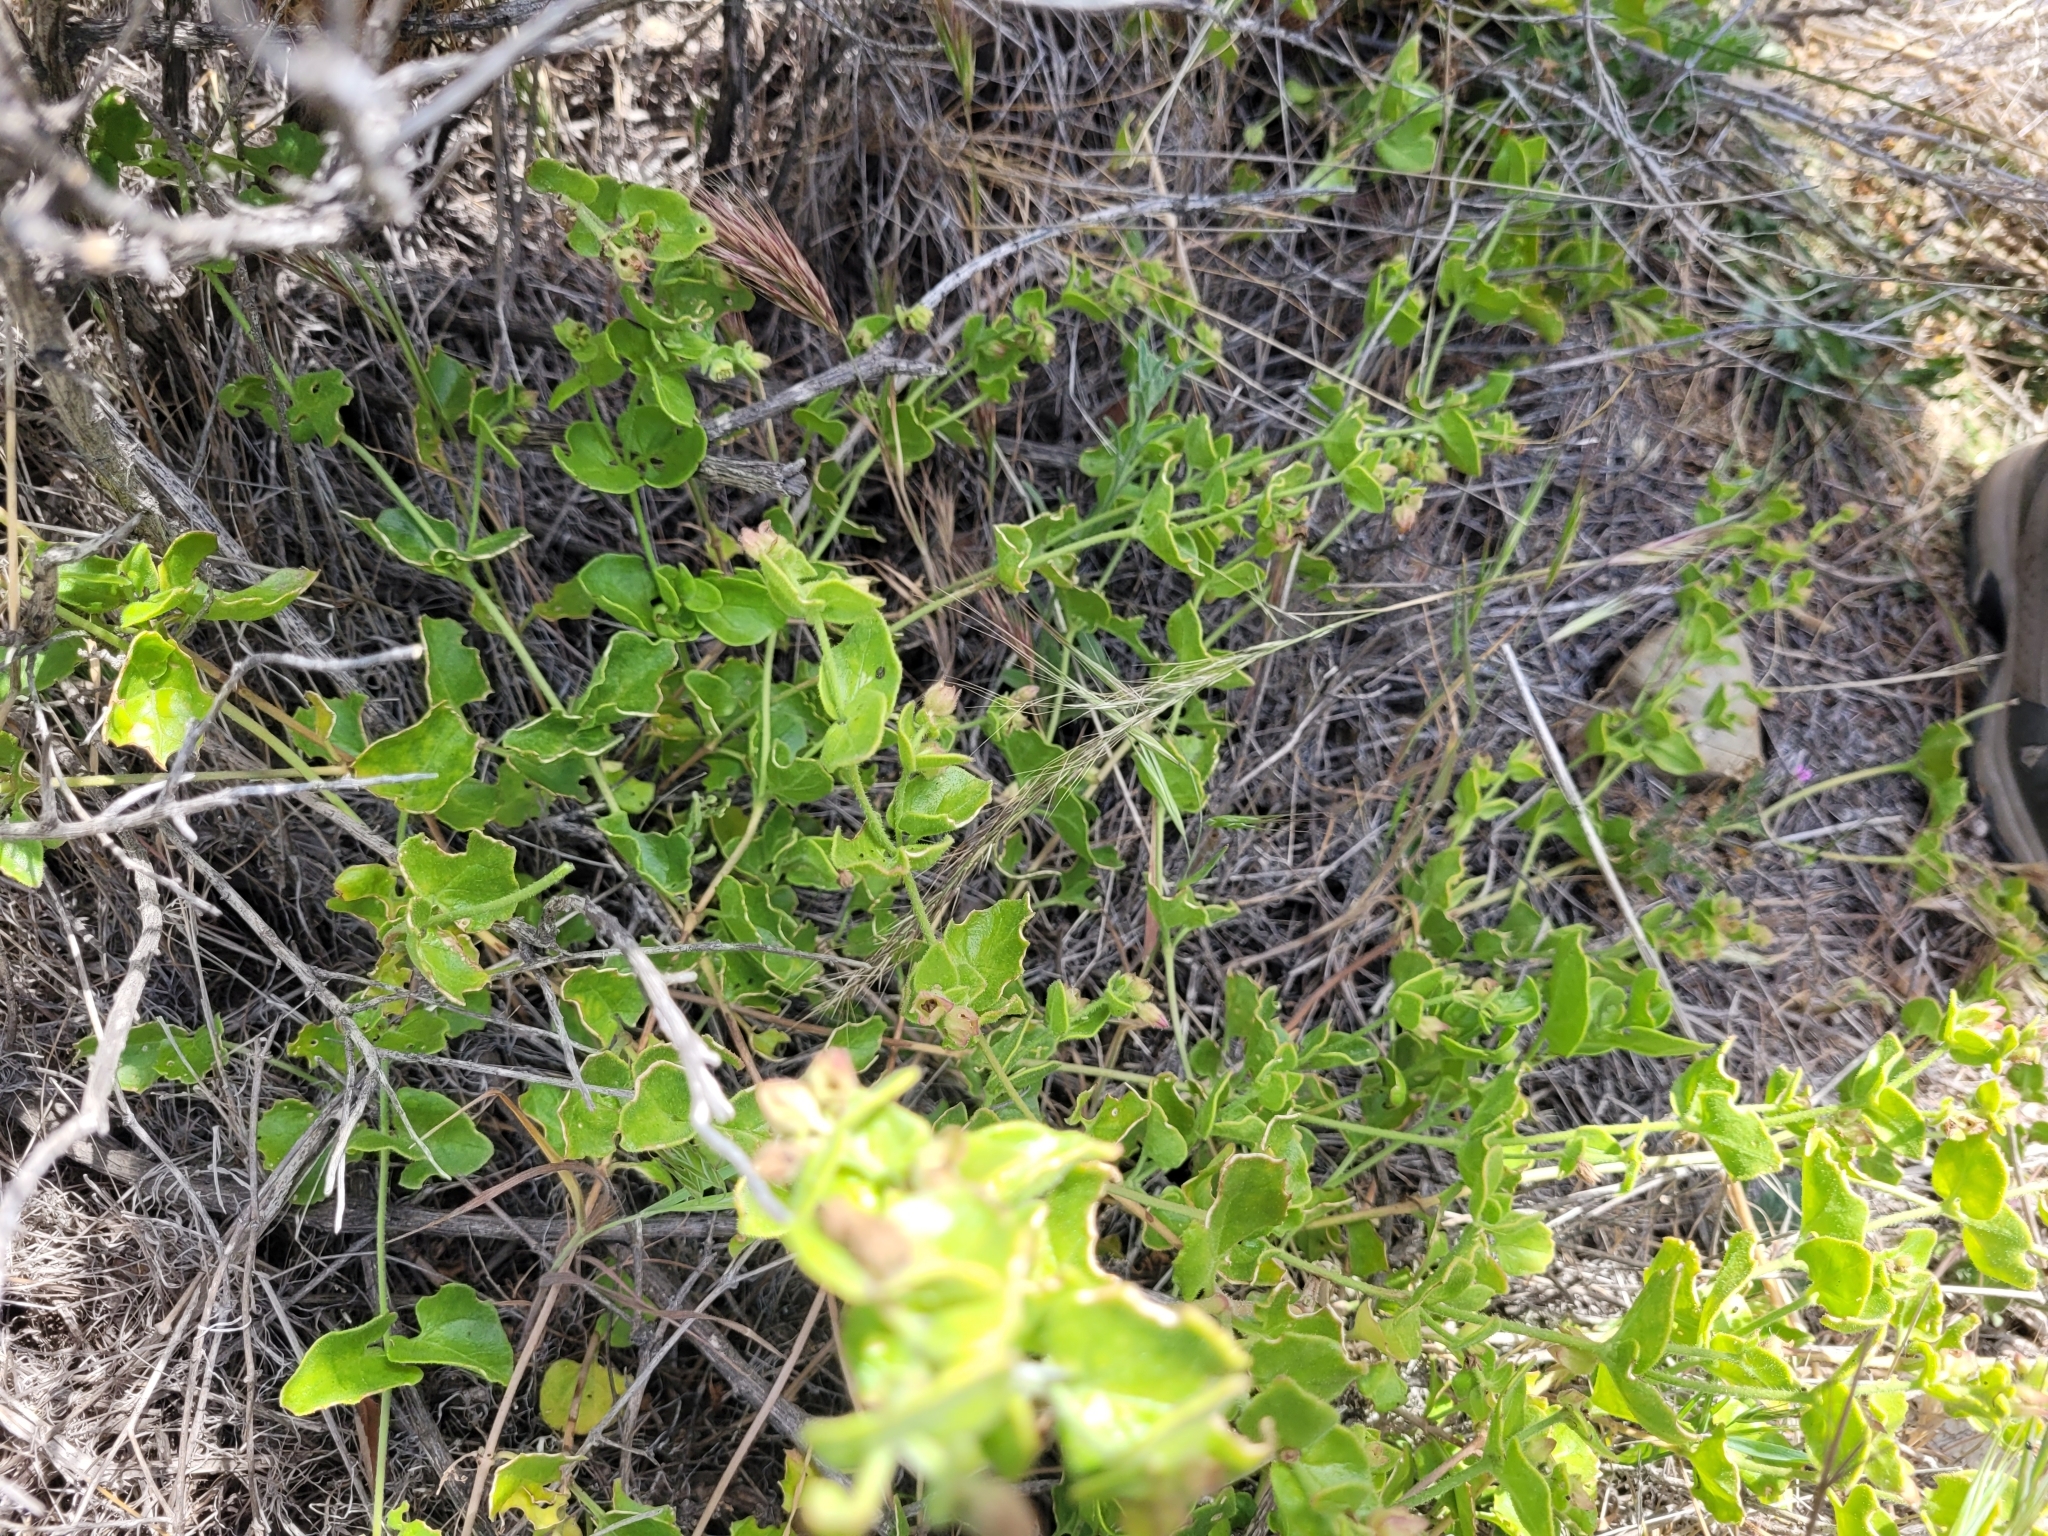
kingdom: Plantae
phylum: Tracheophyta
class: Magnoliopsida
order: Caryophyllales
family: Nyctaginaceae
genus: Mirabilis
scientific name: Mirabilis laevis
